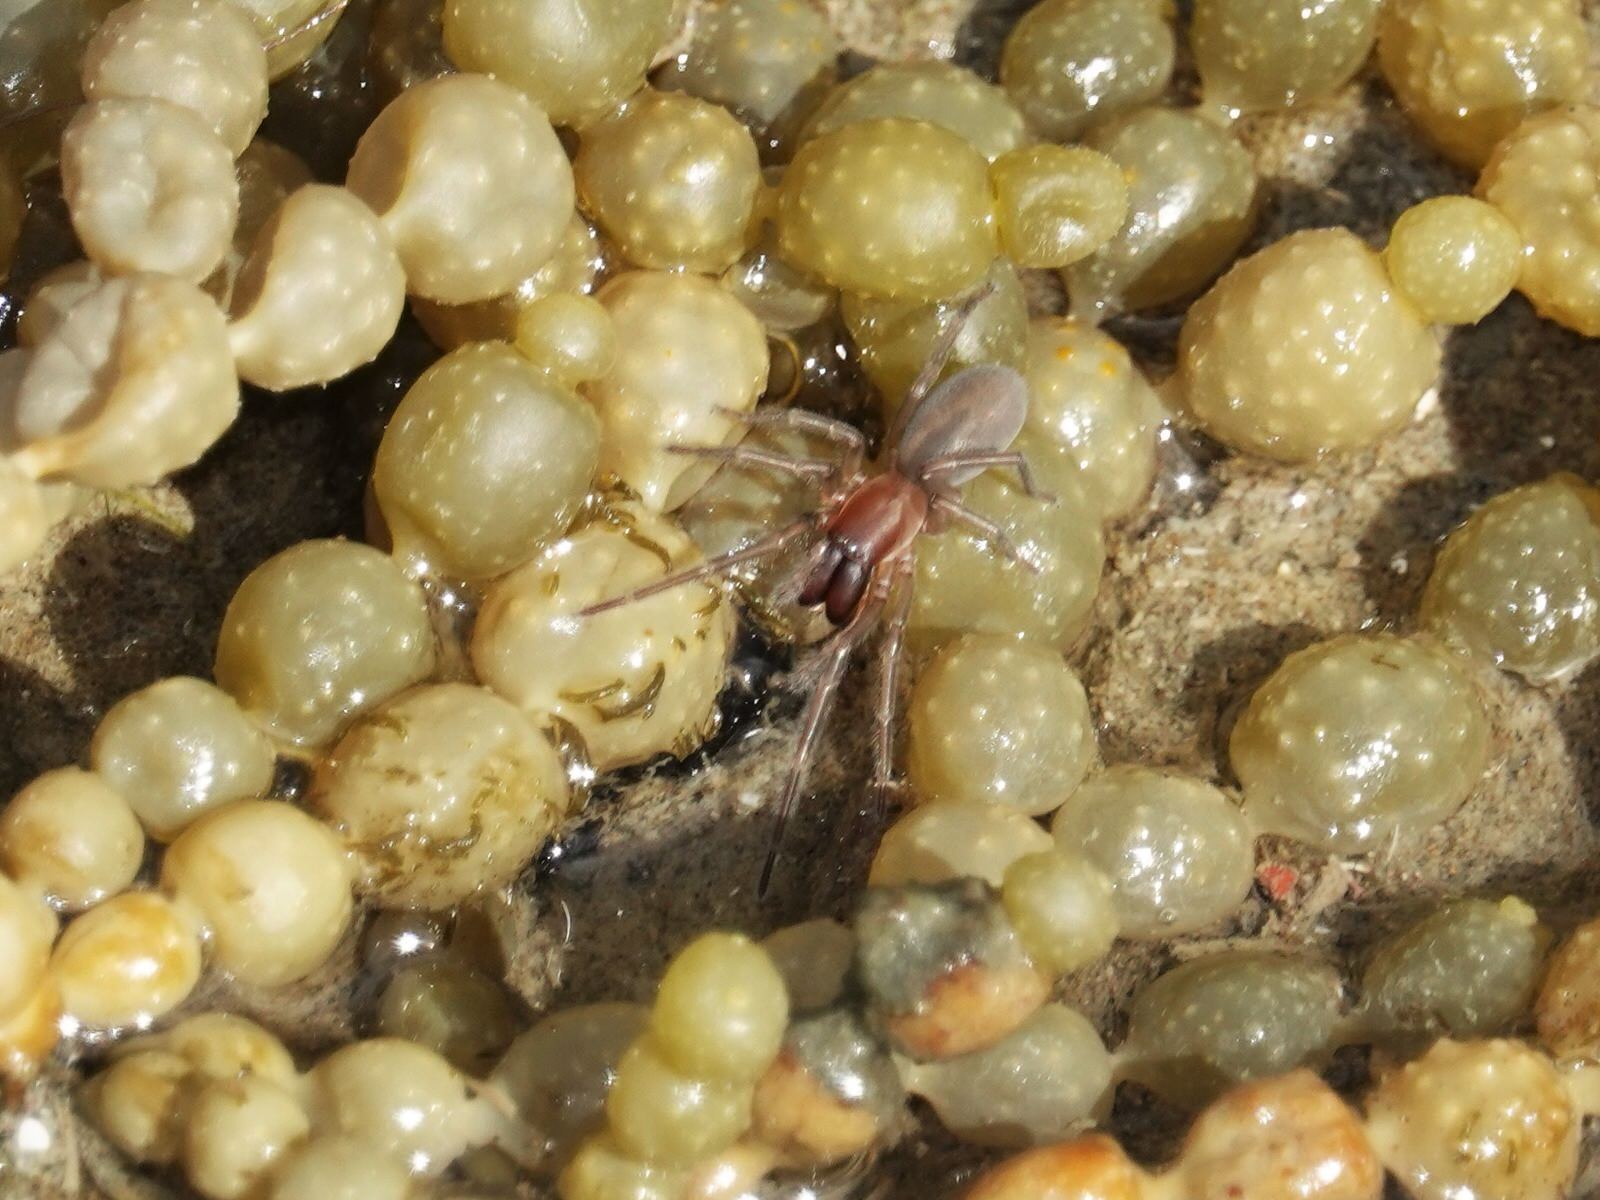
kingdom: Animalia
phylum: Arthropoda
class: Arachnida
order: Araneae
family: Desidae
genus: Desis
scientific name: Desis marina
